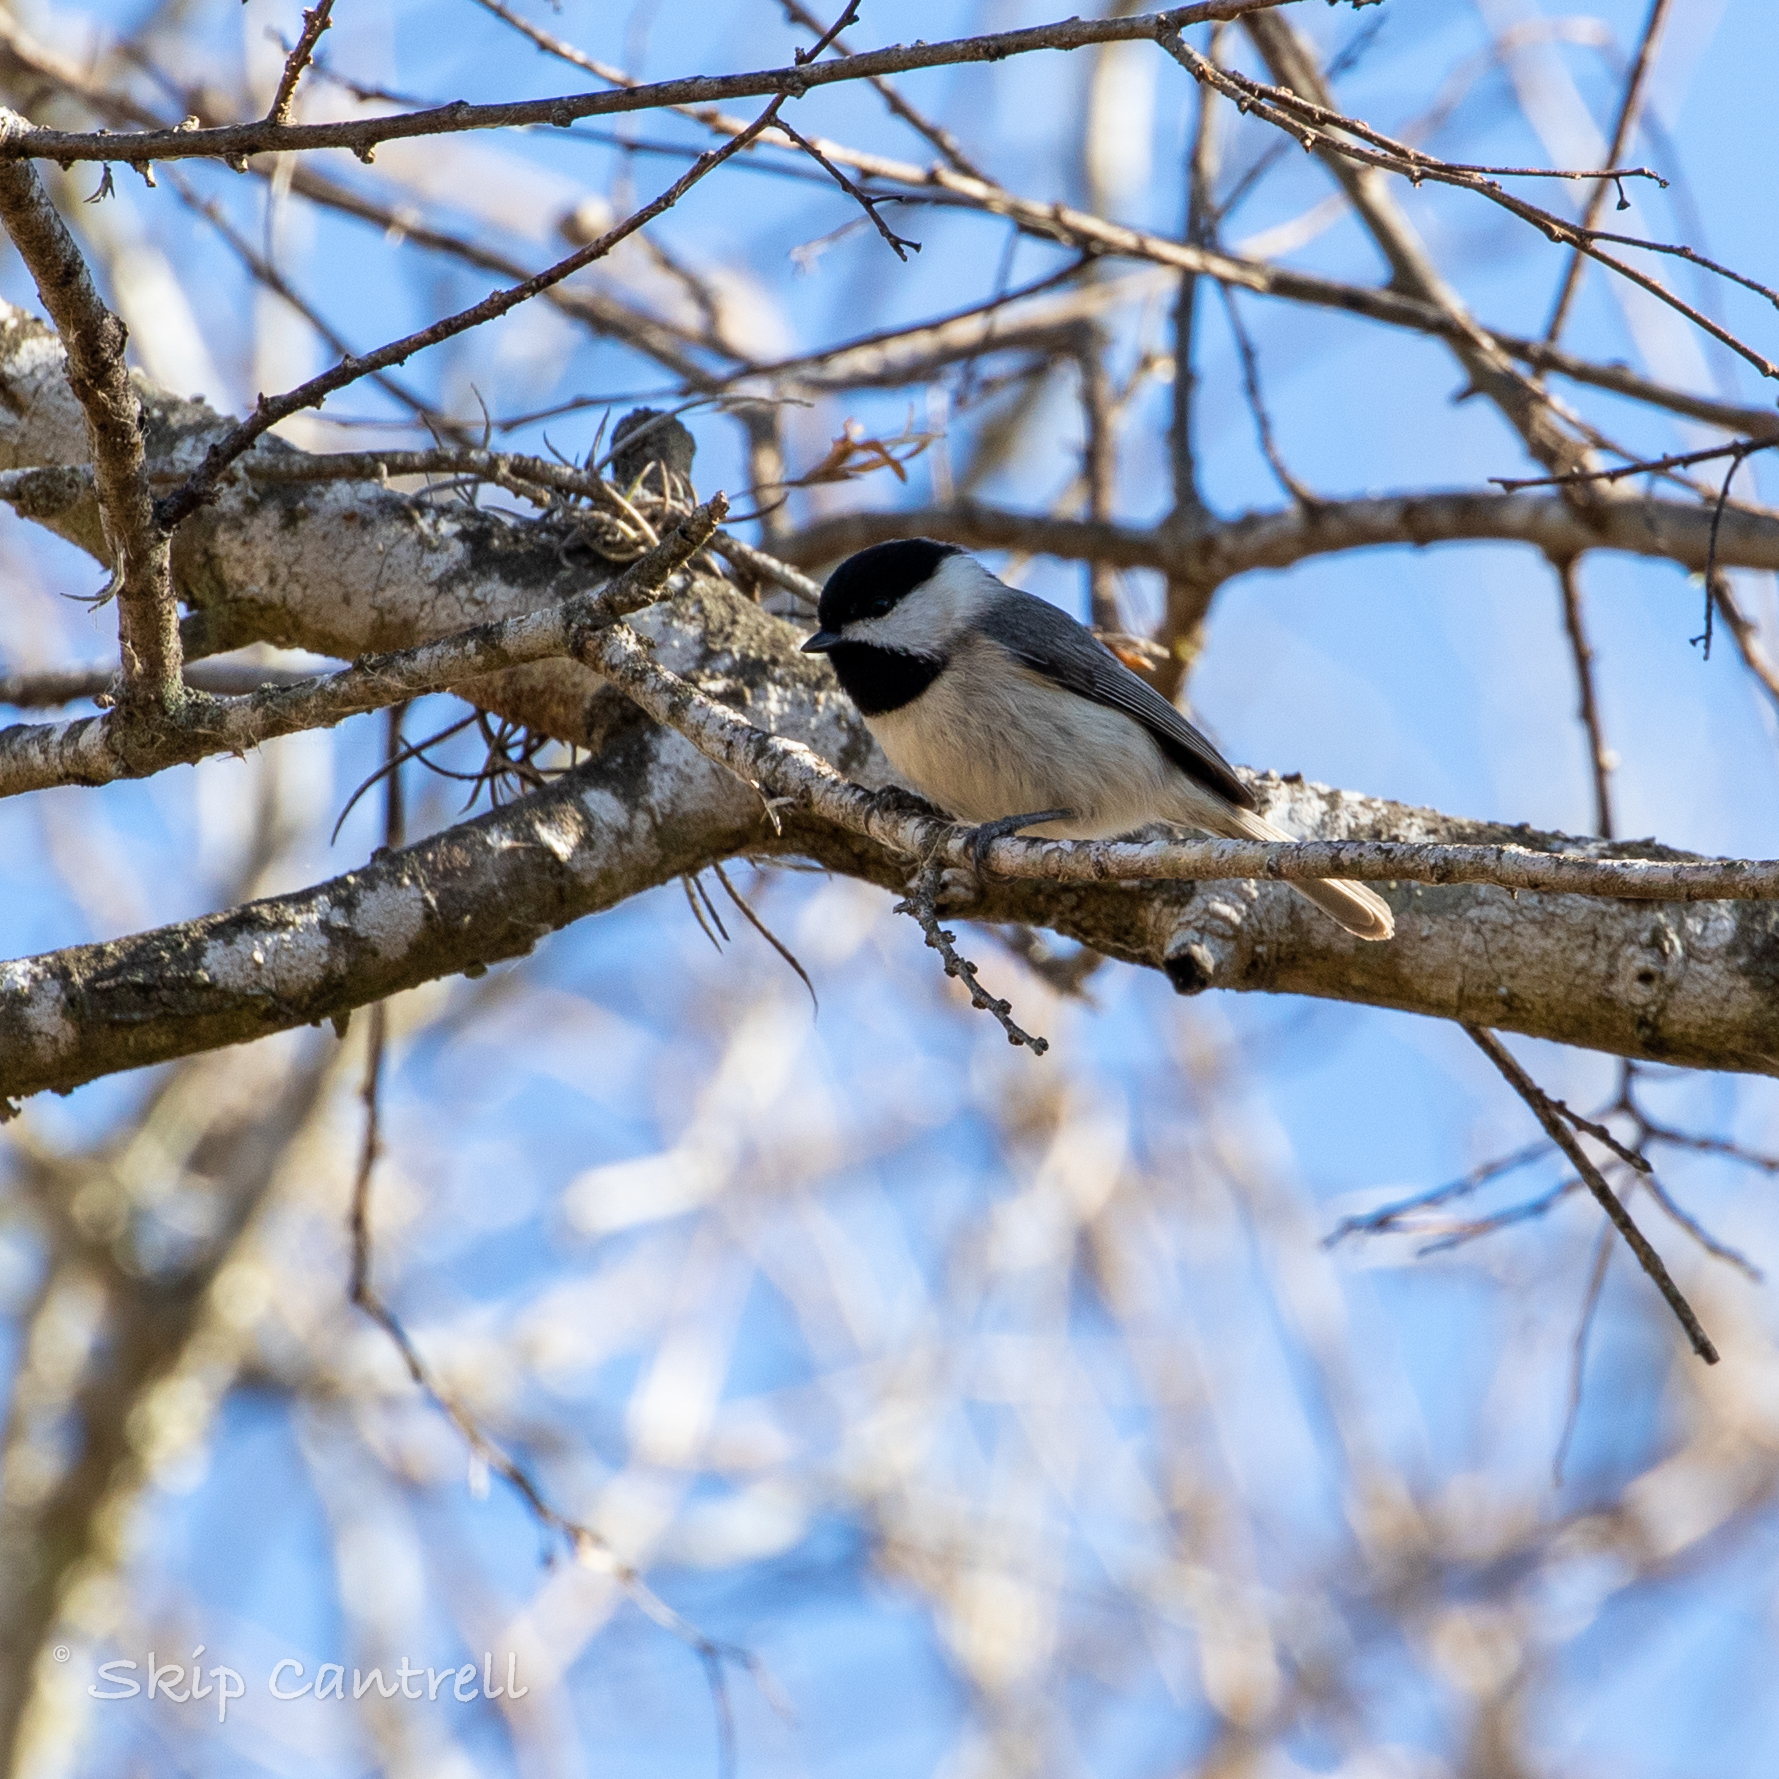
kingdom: Animalia
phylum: Chordata
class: Aves
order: Passeriformes
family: Paridae
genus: Poecile
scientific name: Poecile carolinensis
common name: Carolina chickadee
